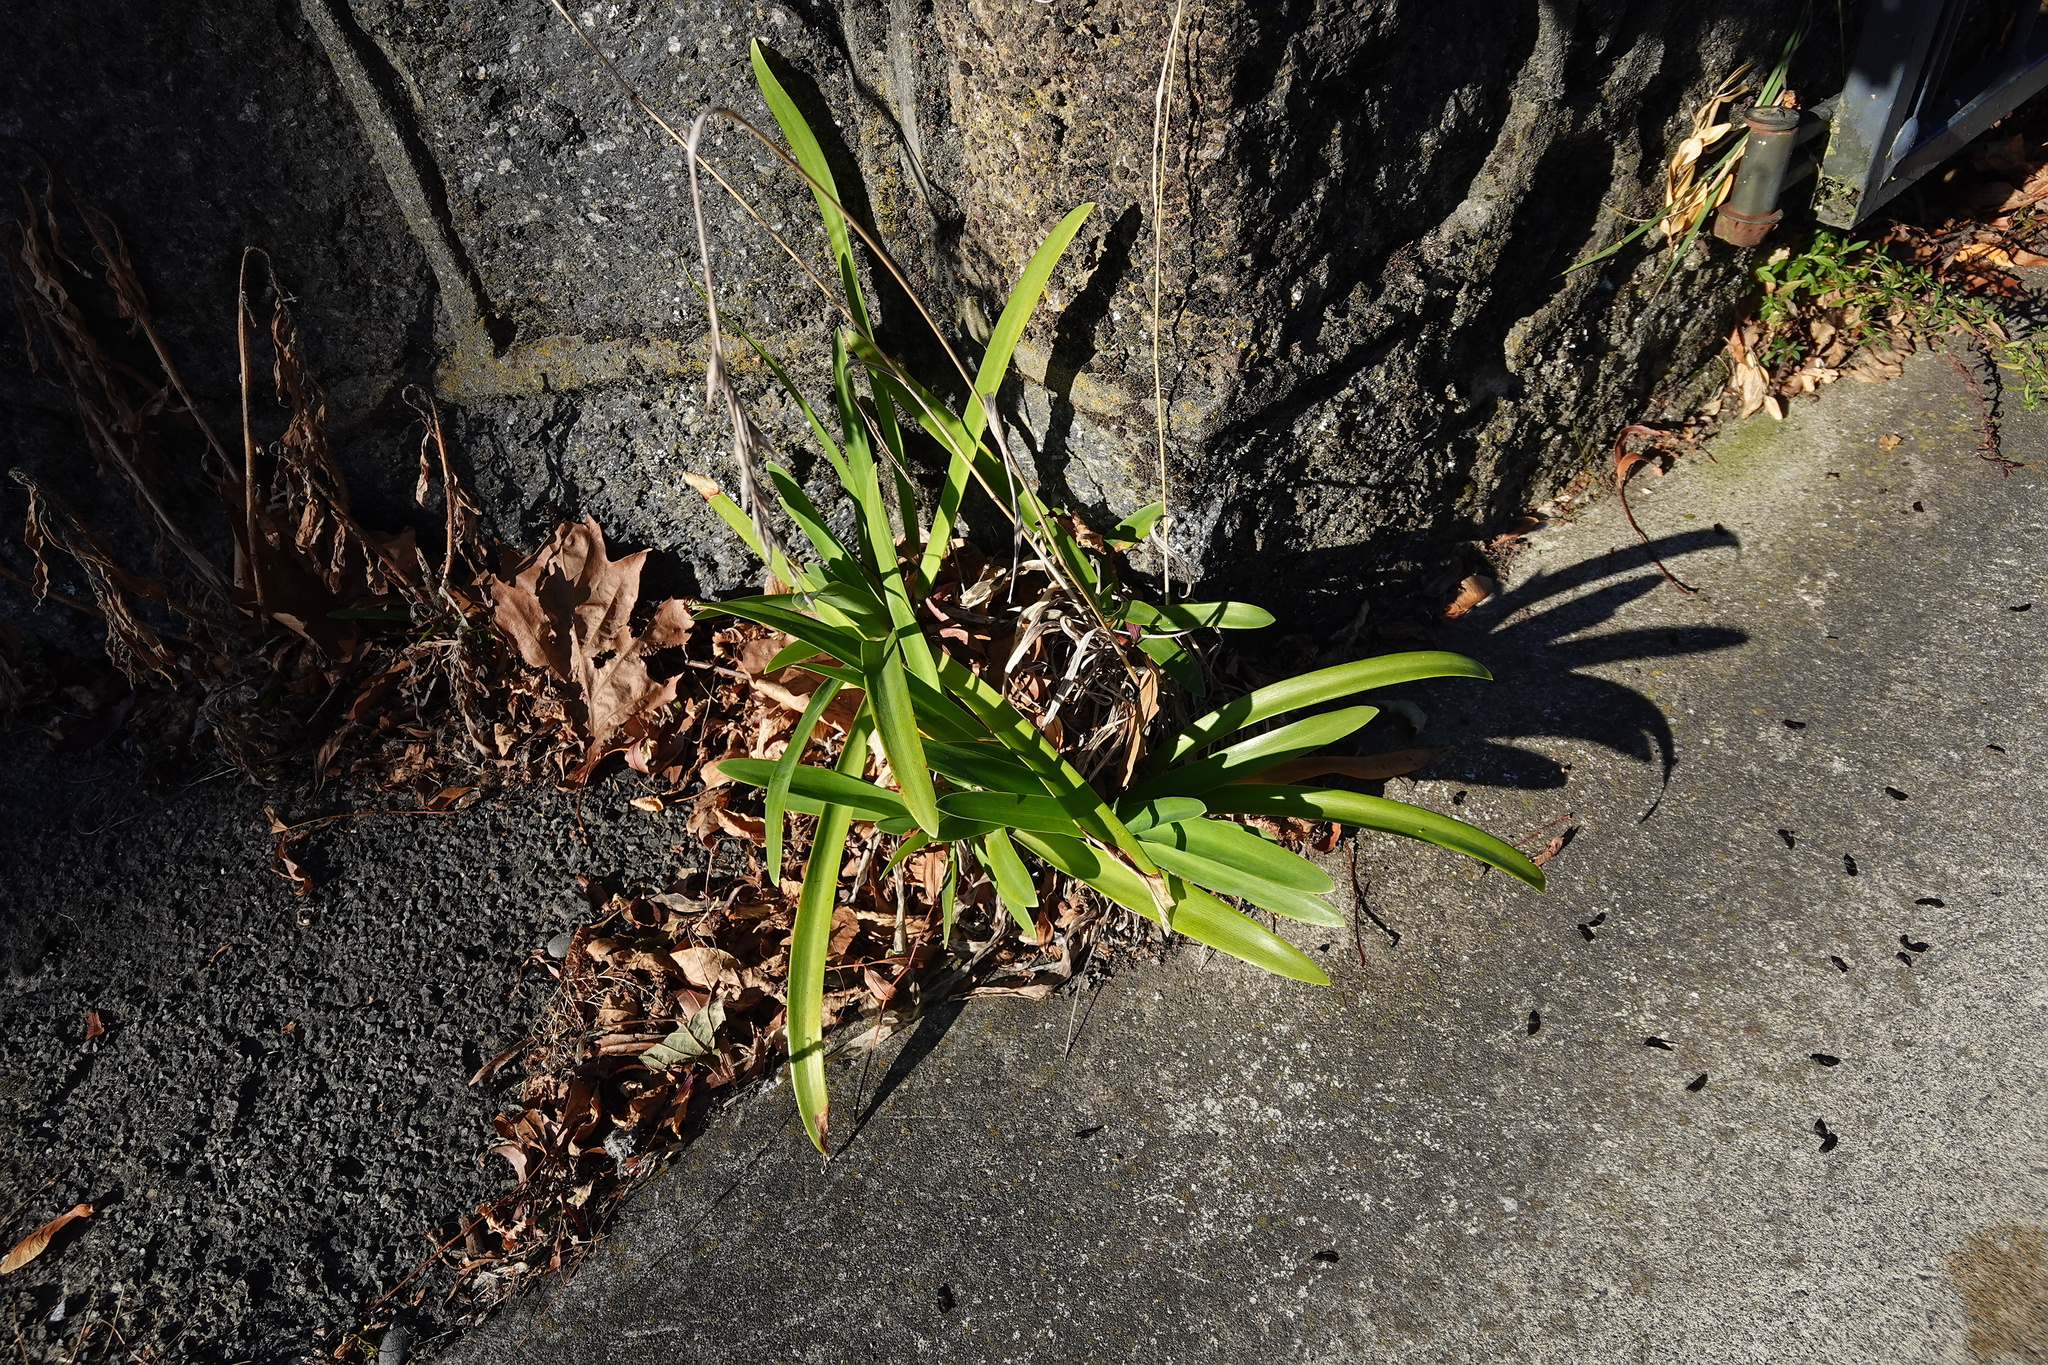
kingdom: Plantae
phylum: Tracheophyta
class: Liliopsida
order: Asparagales
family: Amaryllidaceae
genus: Agapanthus
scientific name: Agapanthus praecox
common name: African-lily
